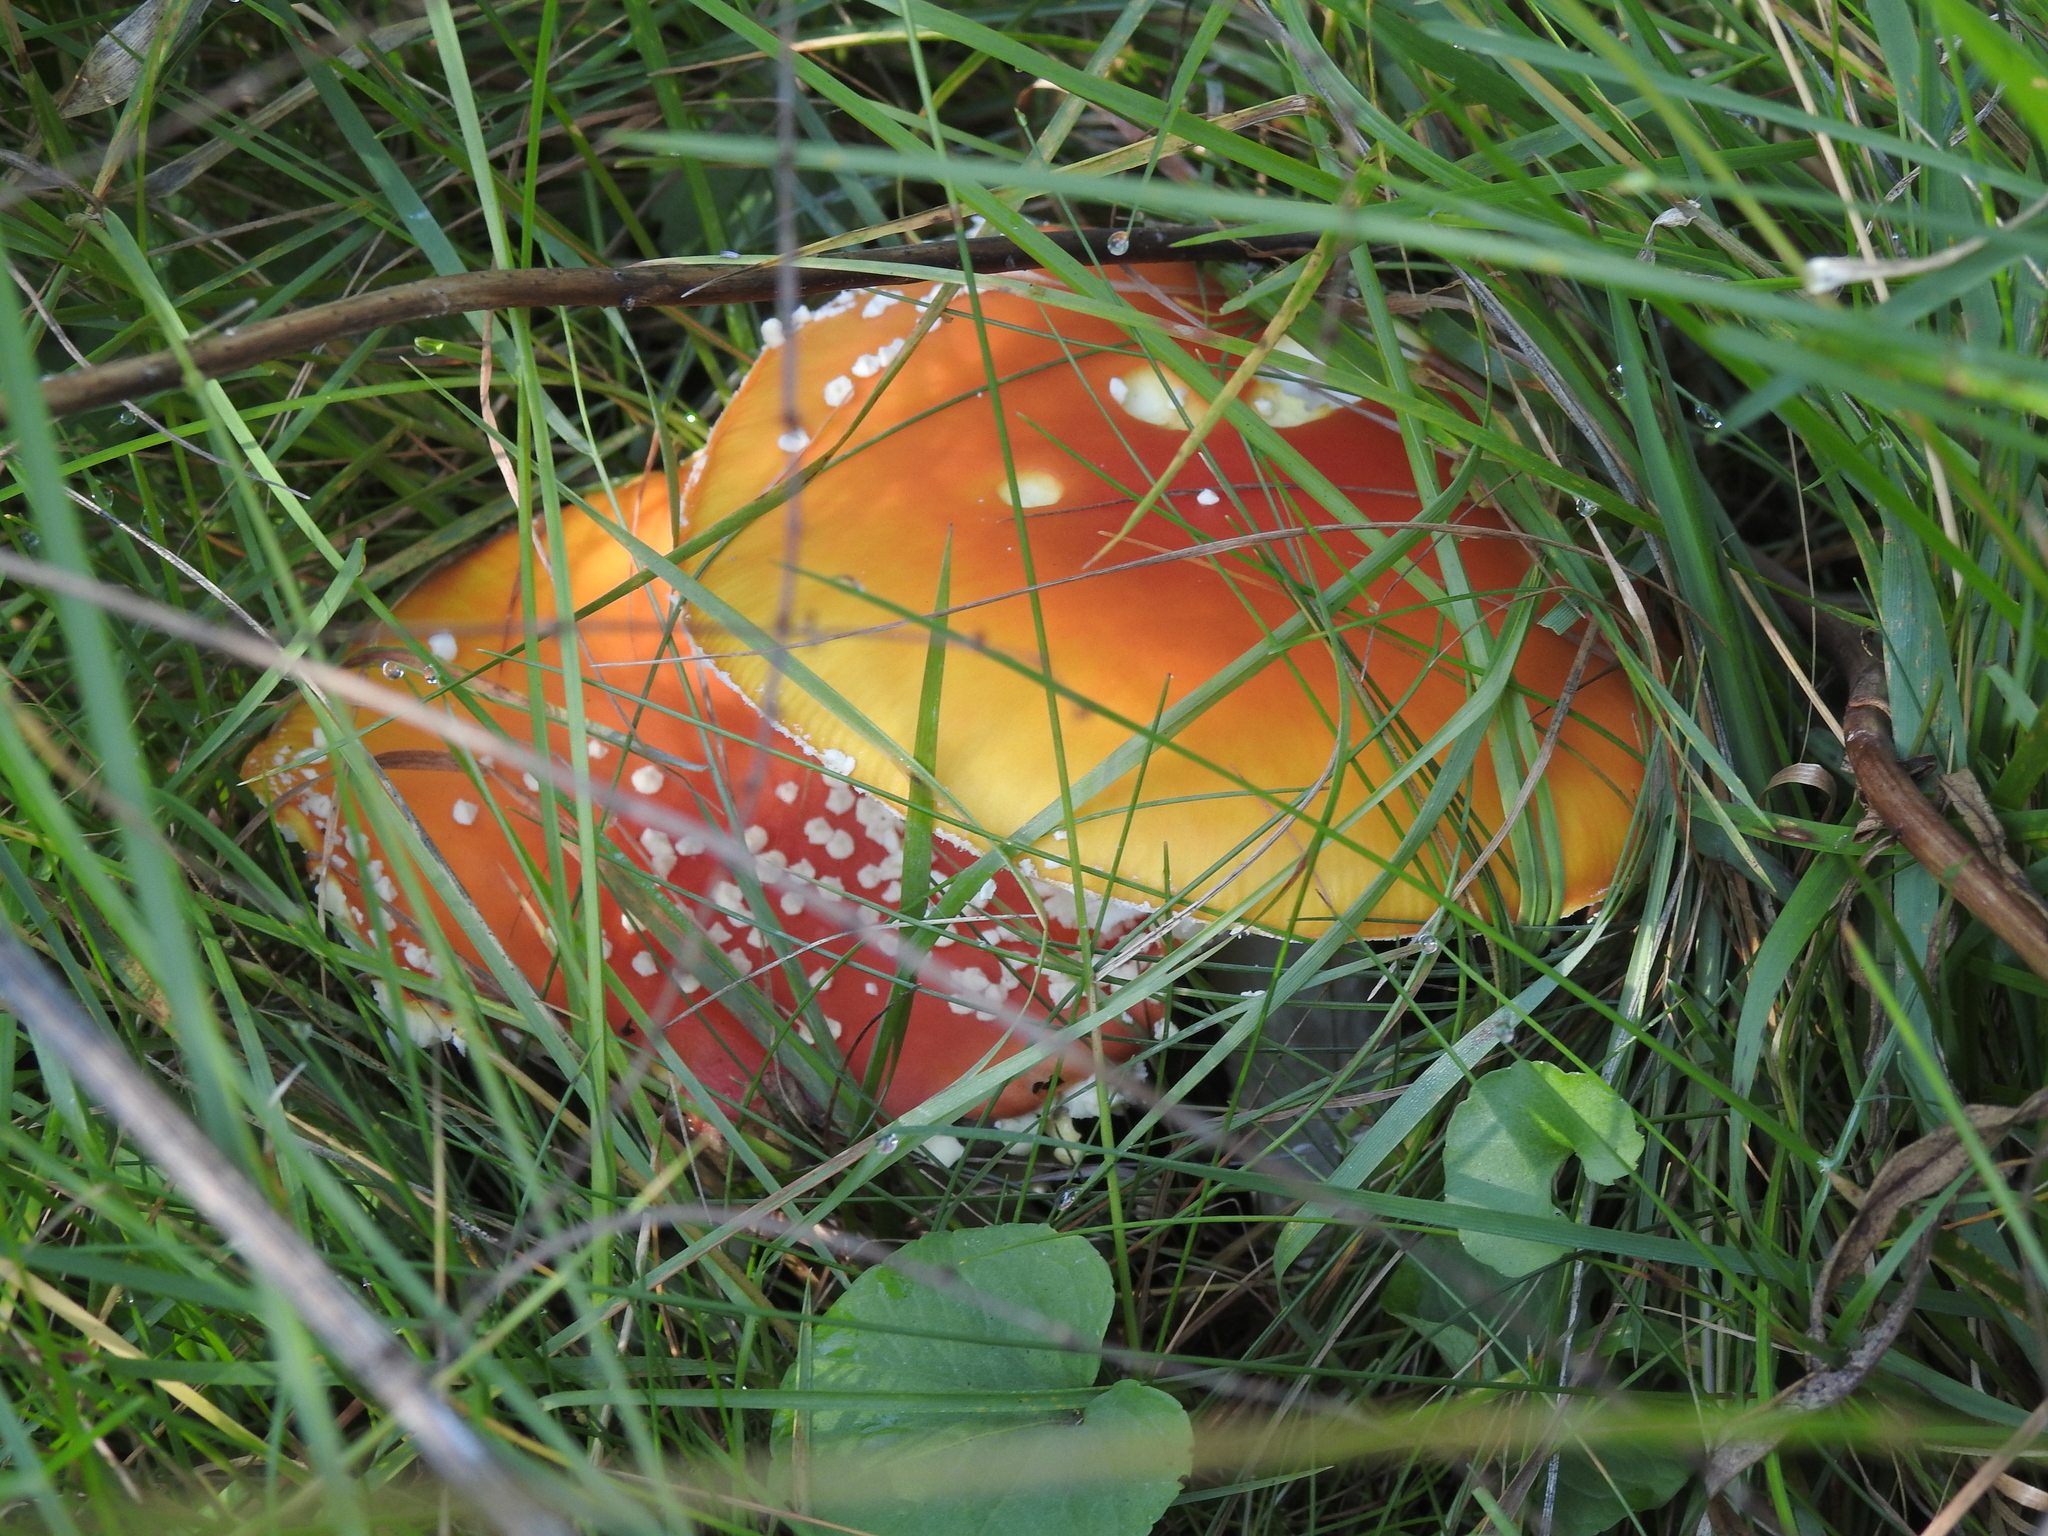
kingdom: Fungi
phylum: Basidiomycota
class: Agaricomycetes
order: Agaricales
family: Amanitaceae
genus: Amanita
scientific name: Amanita muscaria
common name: Fly agaric
